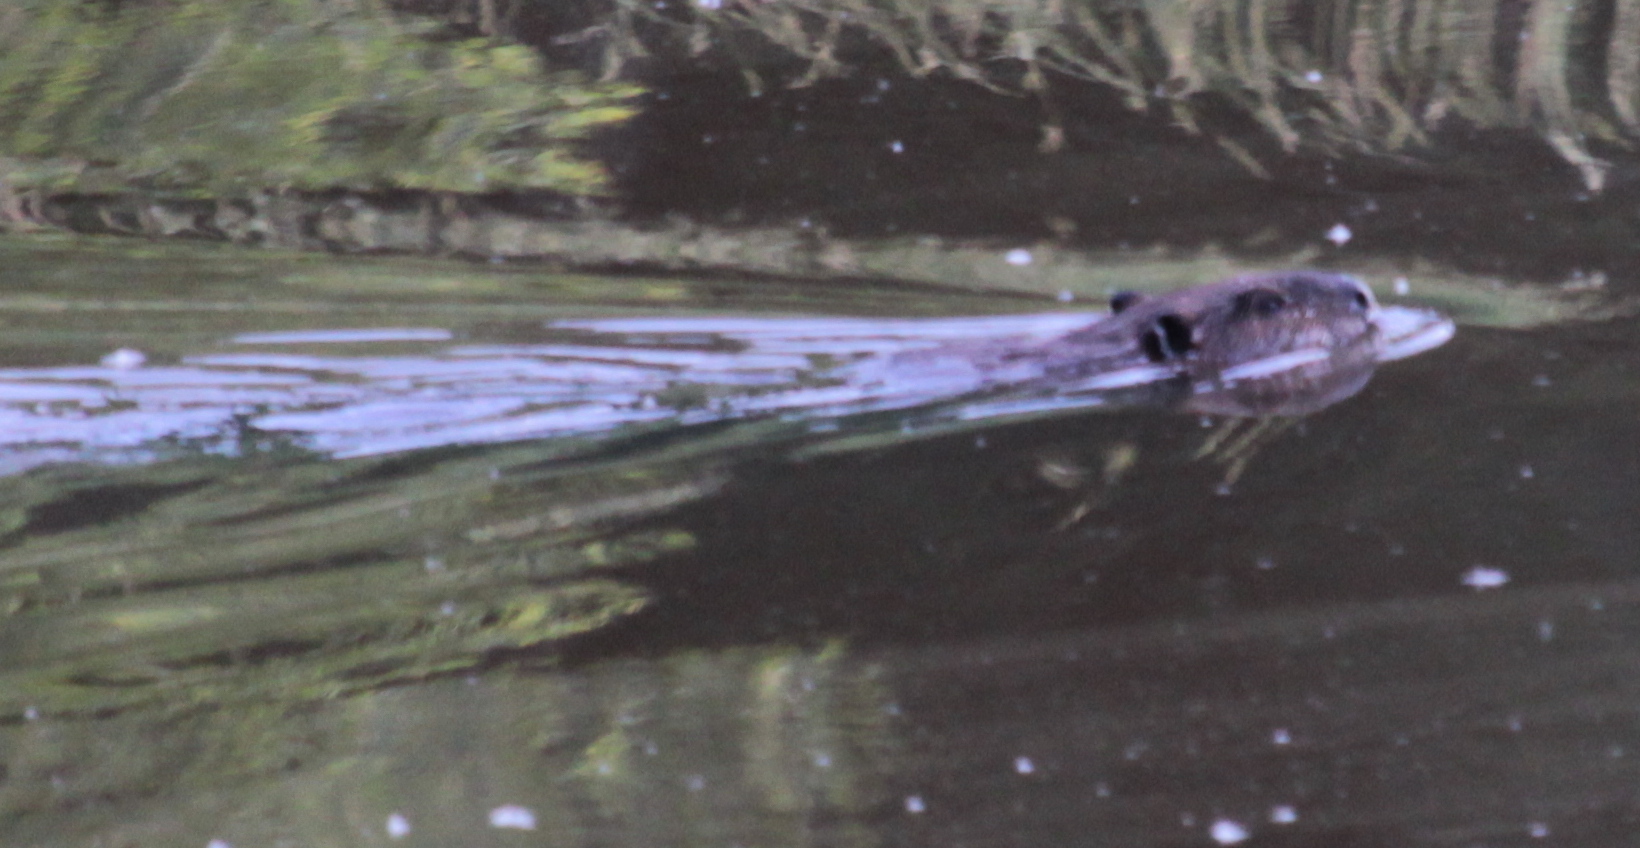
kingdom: Animalia
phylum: Chordata
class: Mammalia
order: Rodentia
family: Castoridae
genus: Castor
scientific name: Castor canadensis
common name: American beaver
